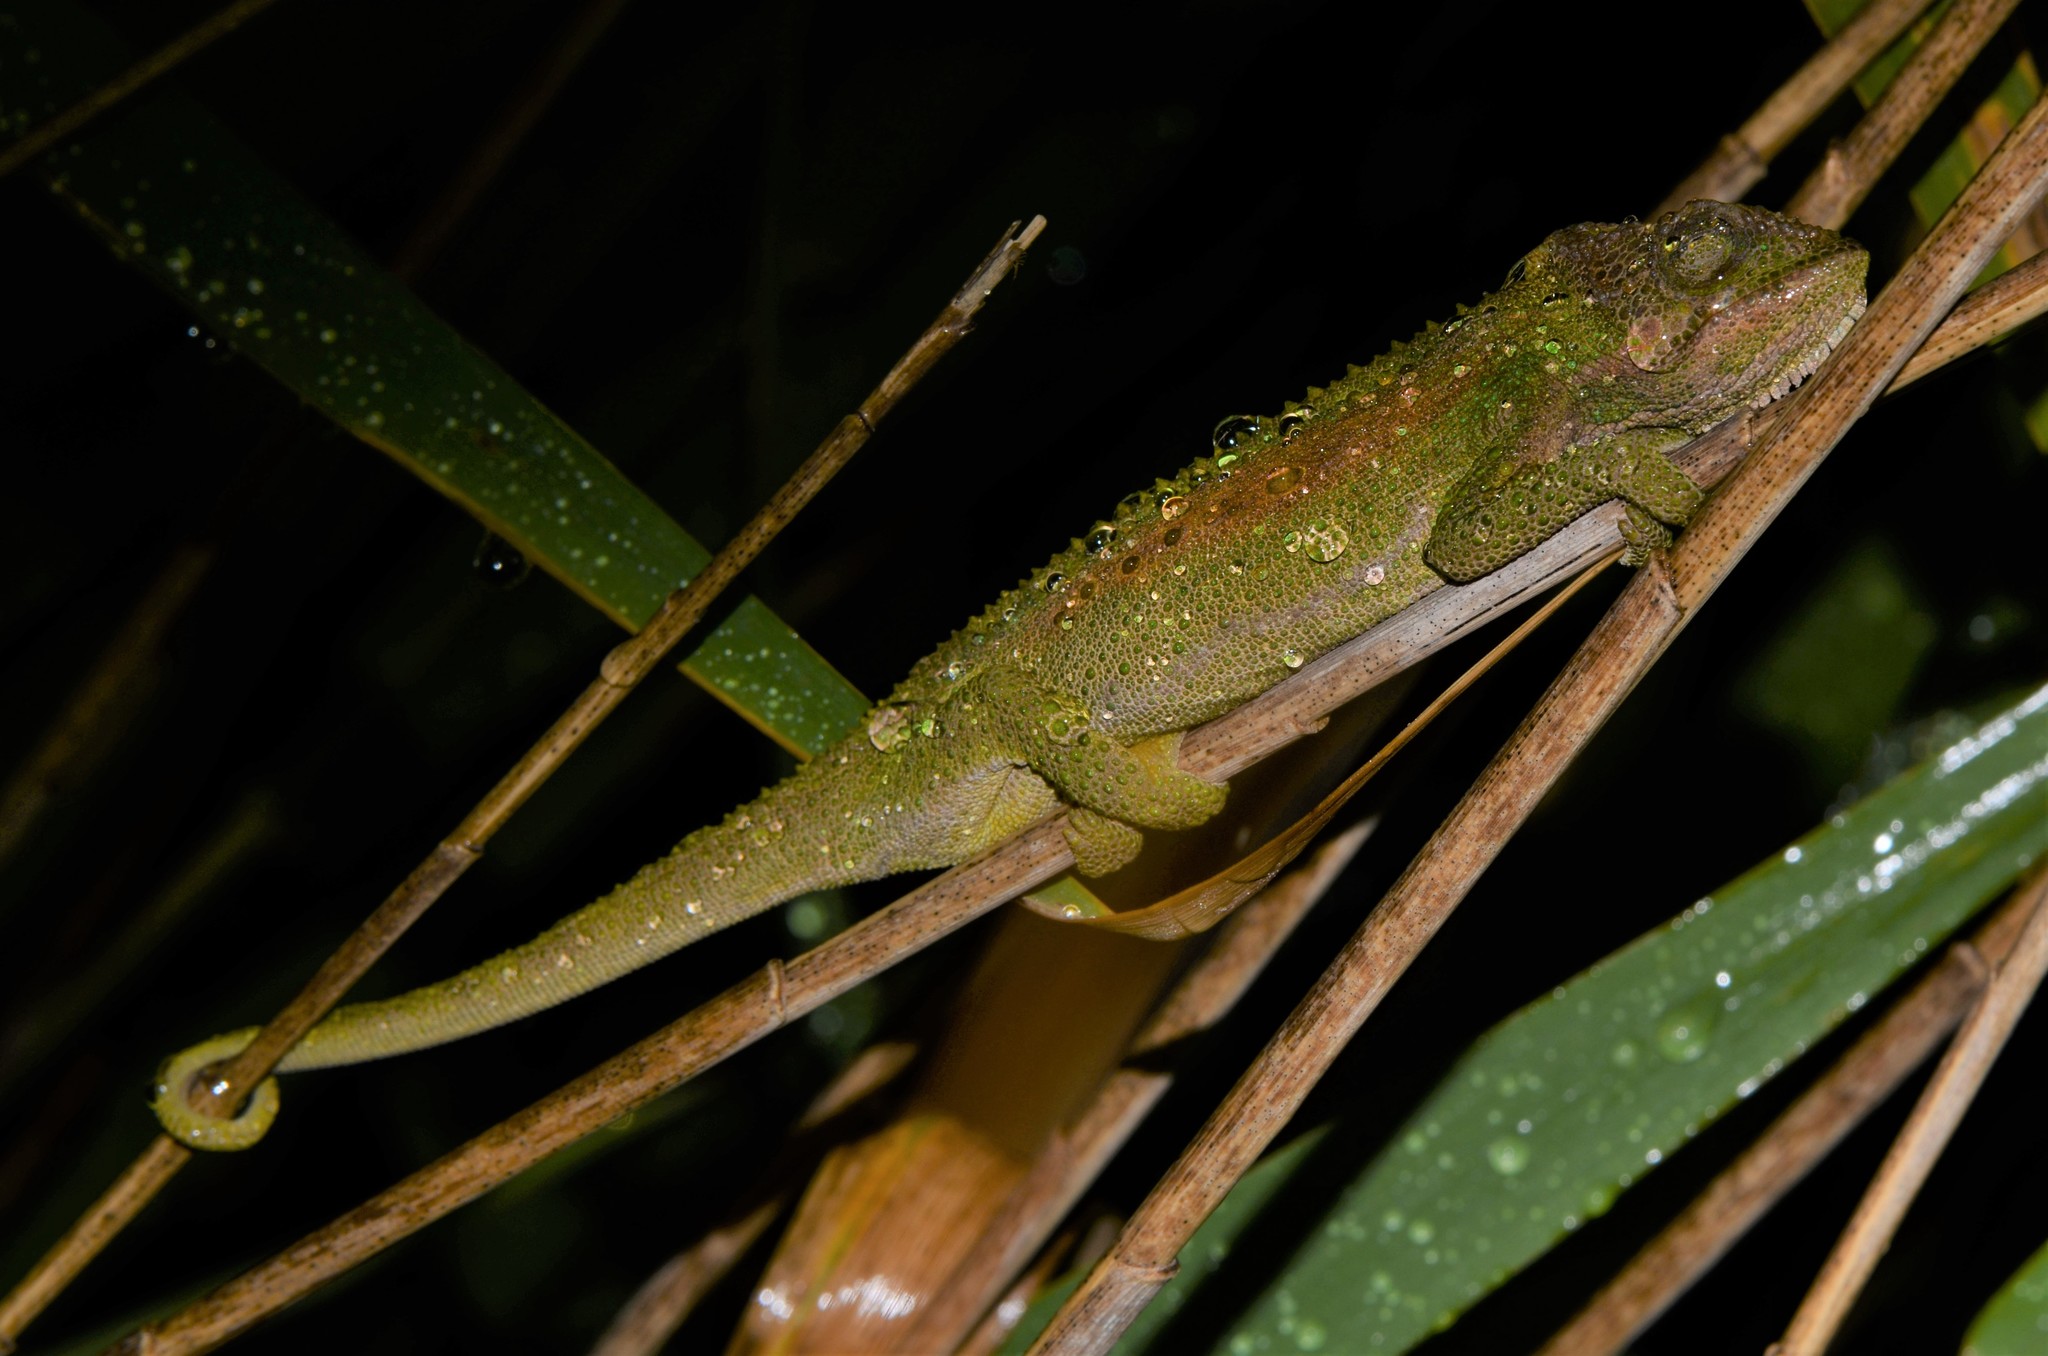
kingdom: Animalia
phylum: Chordata
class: Squamata
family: Chamaeleonidae
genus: Bradypodion
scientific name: Bradypodion pumilum
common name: Cape dwarf chameleon
